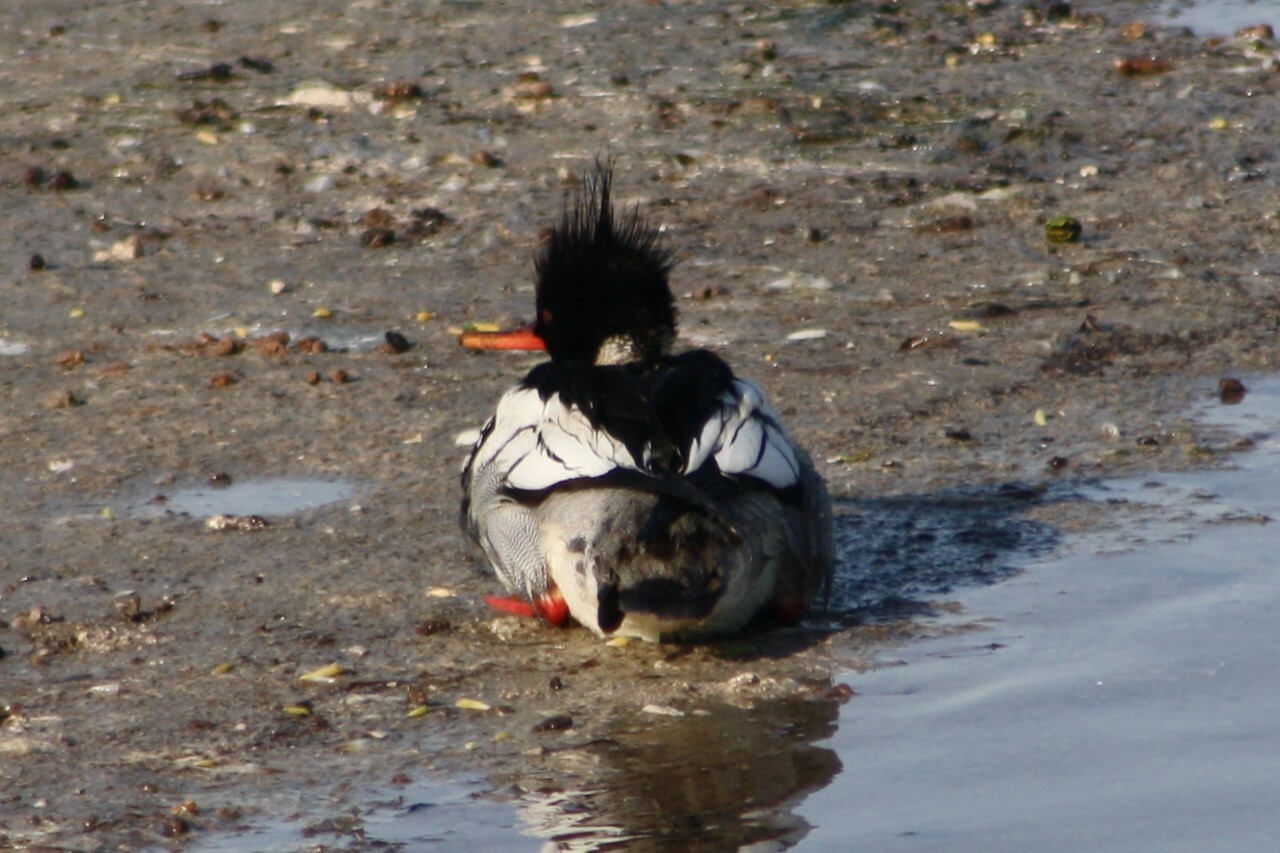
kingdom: Animalia
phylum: Chordata
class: Aves
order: Anseriformes
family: Anatidae
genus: Mergus
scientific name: Mergus serrator
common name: Red-breasted merganser
